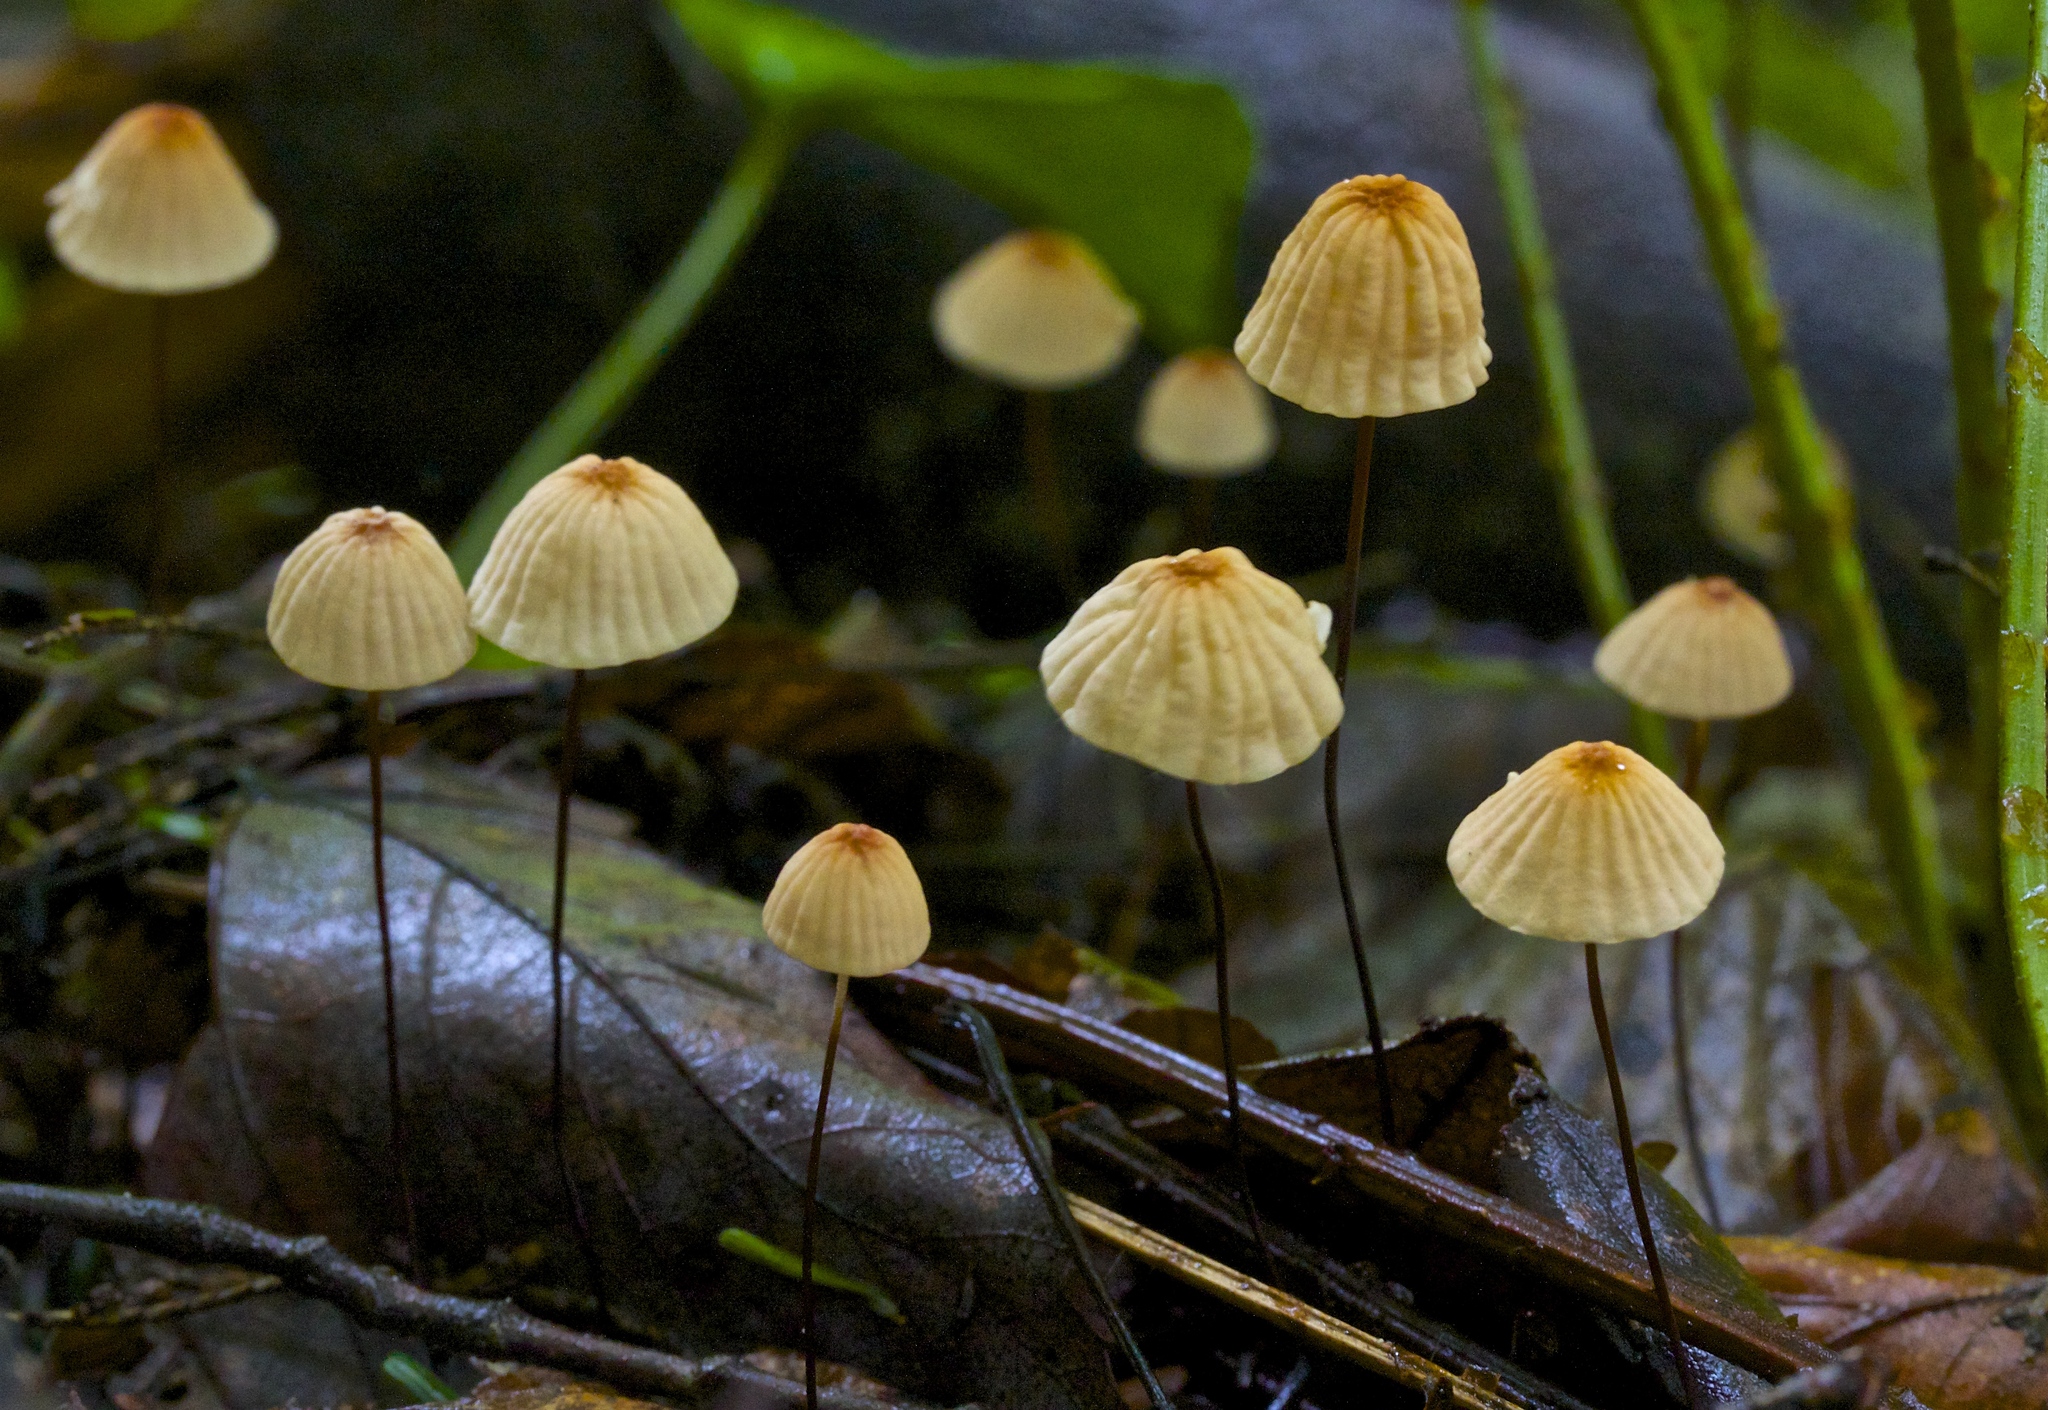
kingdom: Fungi
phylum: Basidiomycota
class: Agaricomycetes
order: Agaricales
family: Marasmiaceae
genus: Marasmius
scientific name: Marasmius siccus
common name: Orange pinwheel
